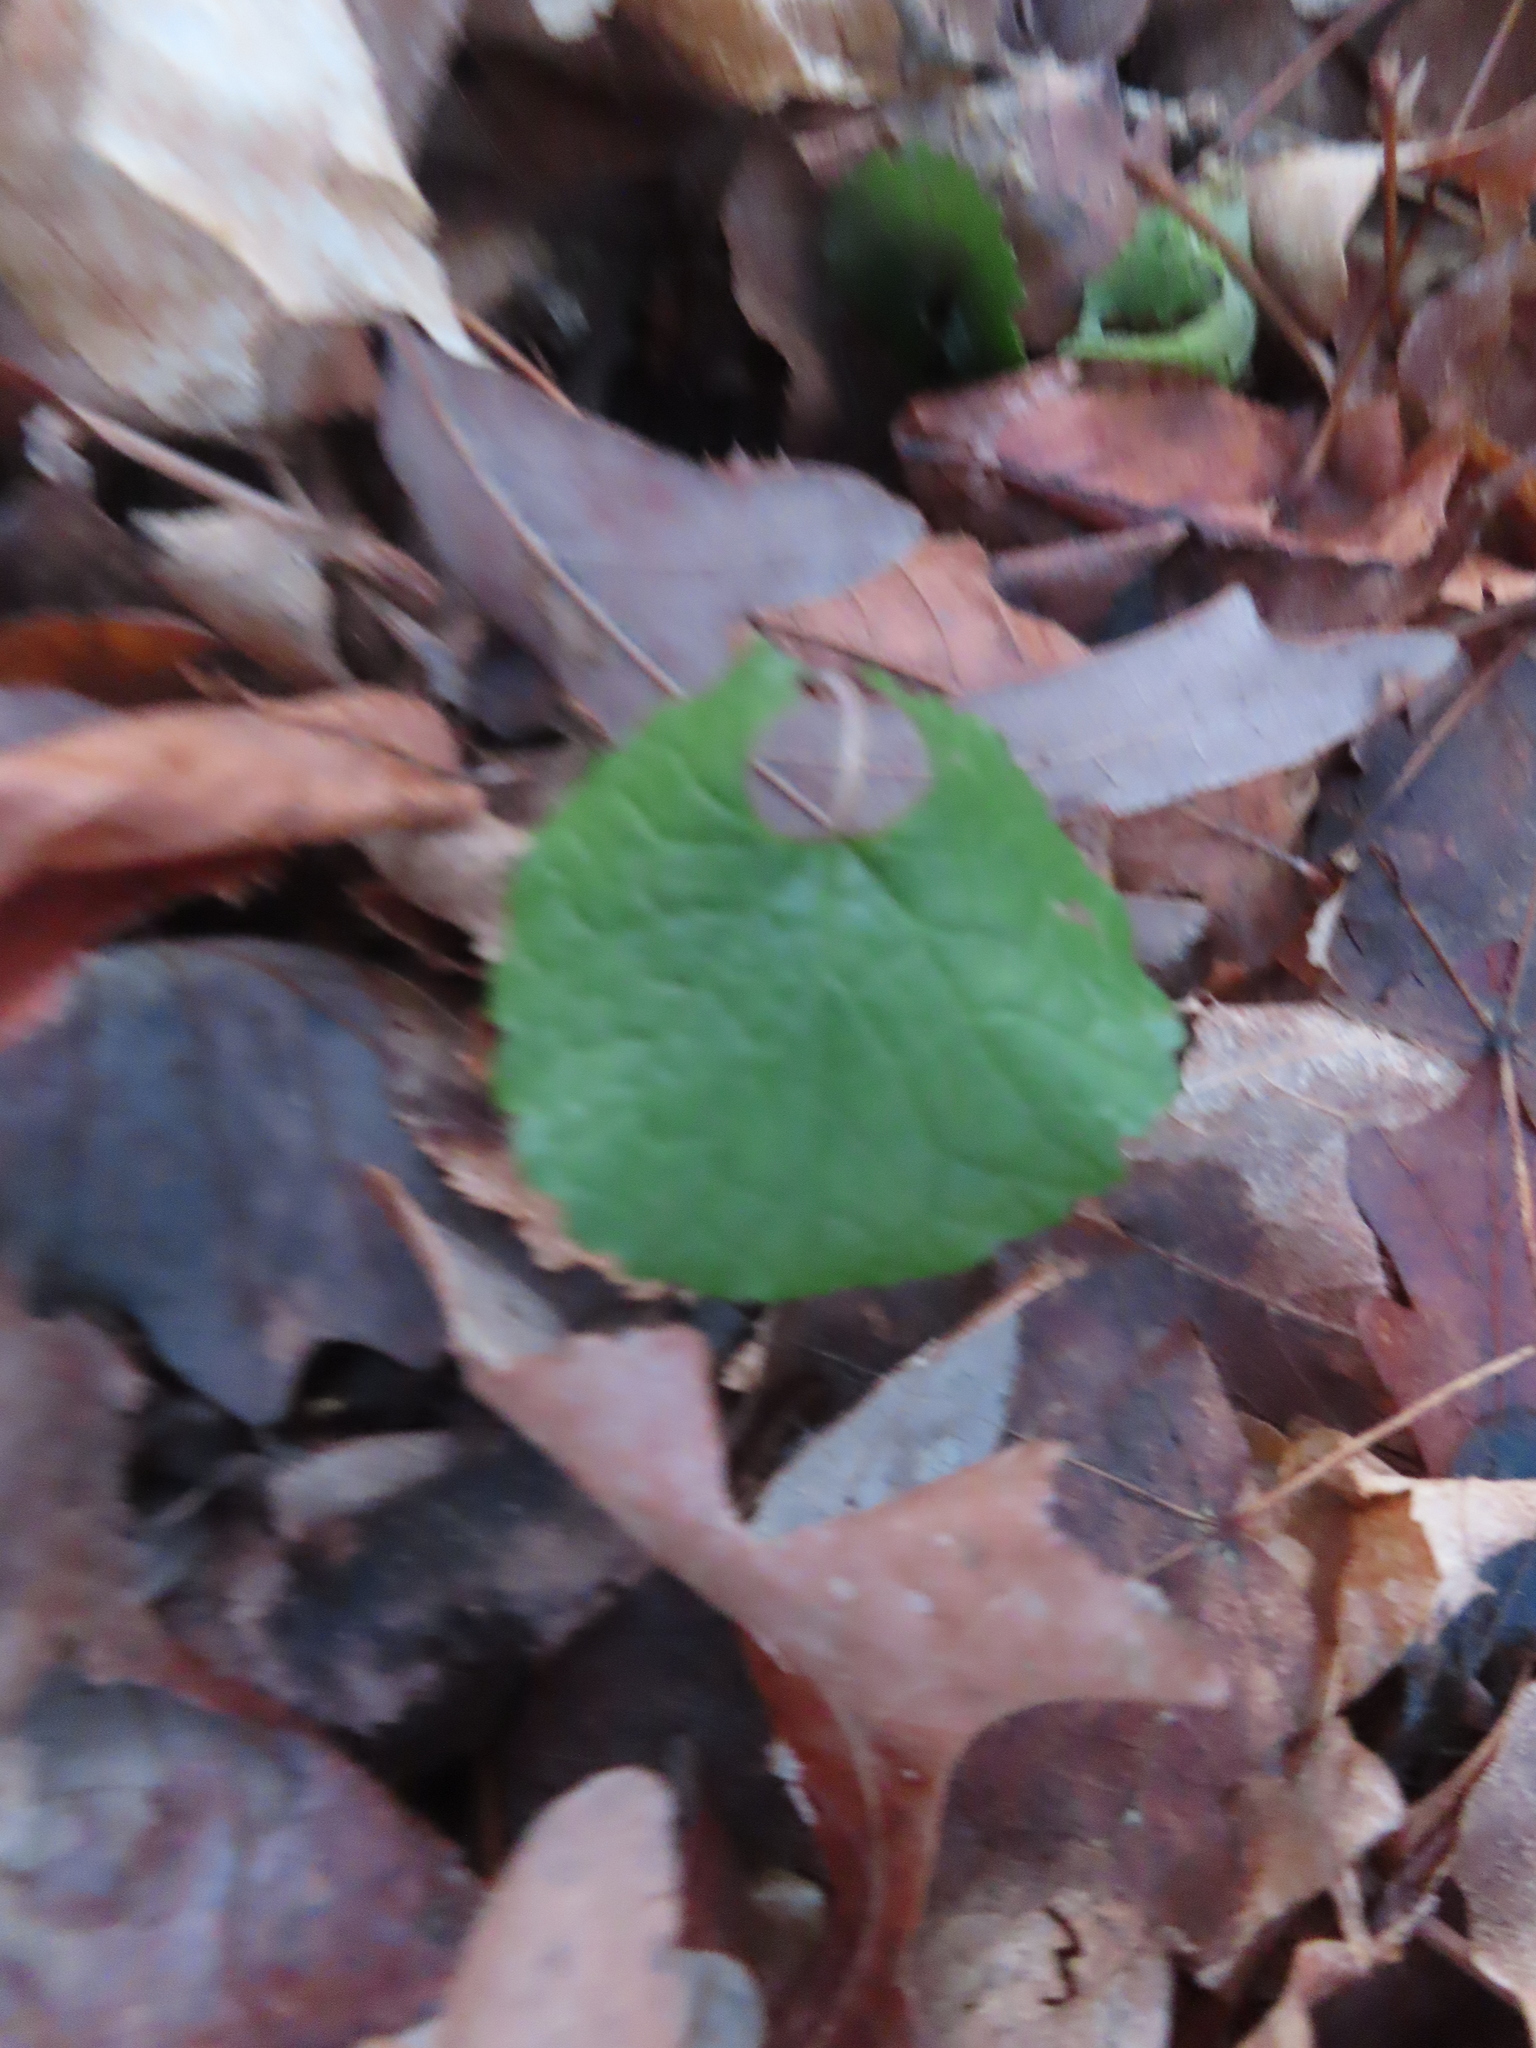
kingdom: Plantae
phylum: Tracheophyta
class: Magnoliopsida
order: Brassicales
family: Brassicaceae
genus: Alliaria
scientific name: Alliaria petiolata
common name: Garlic mustard
